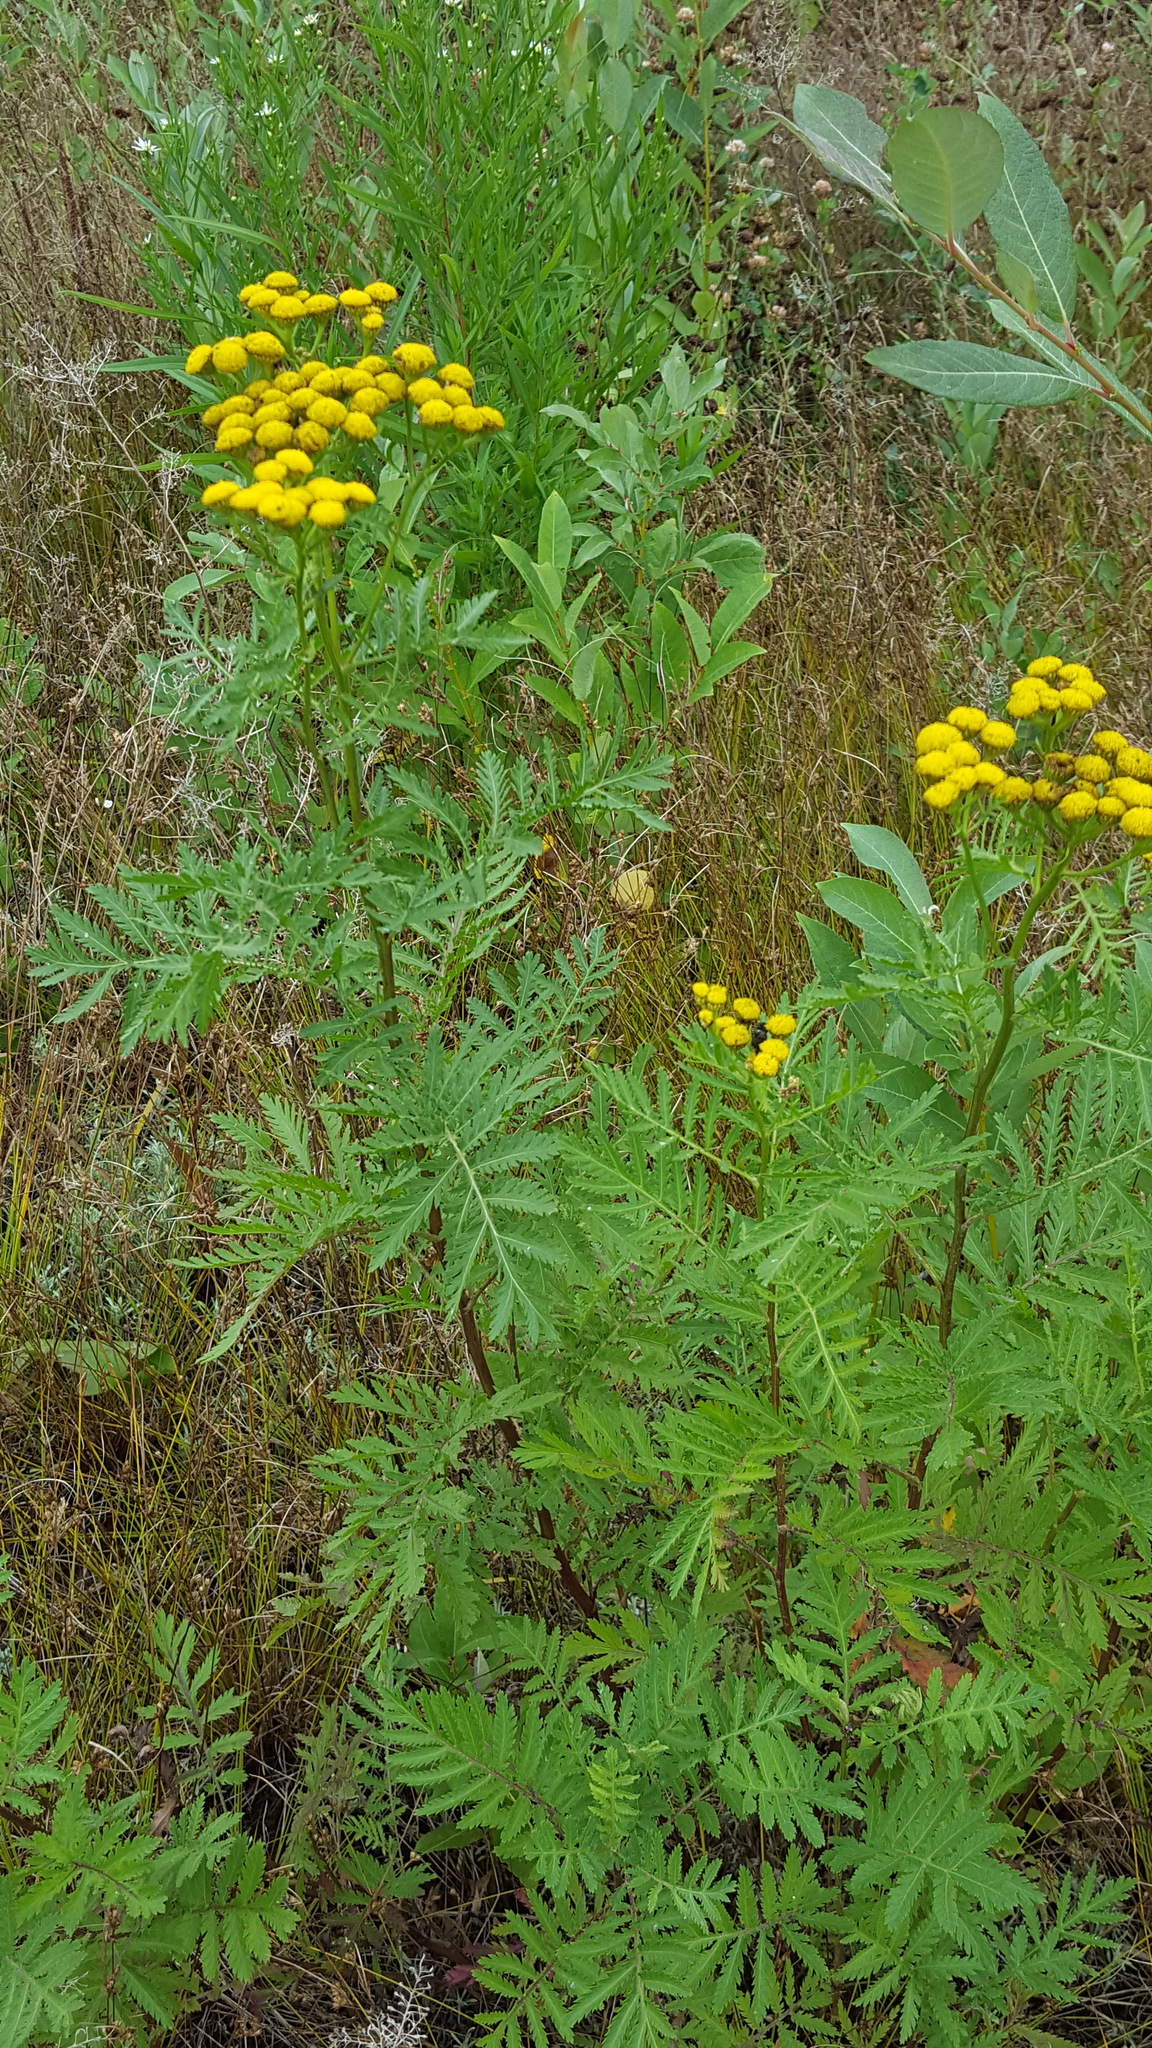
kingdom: Plantae
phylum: Tracheophyta
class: Magnoliopsida
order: Asterales
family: Asteraceae
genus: Tanacetum
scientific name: Tanacetum vulgare
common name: Common tansy
